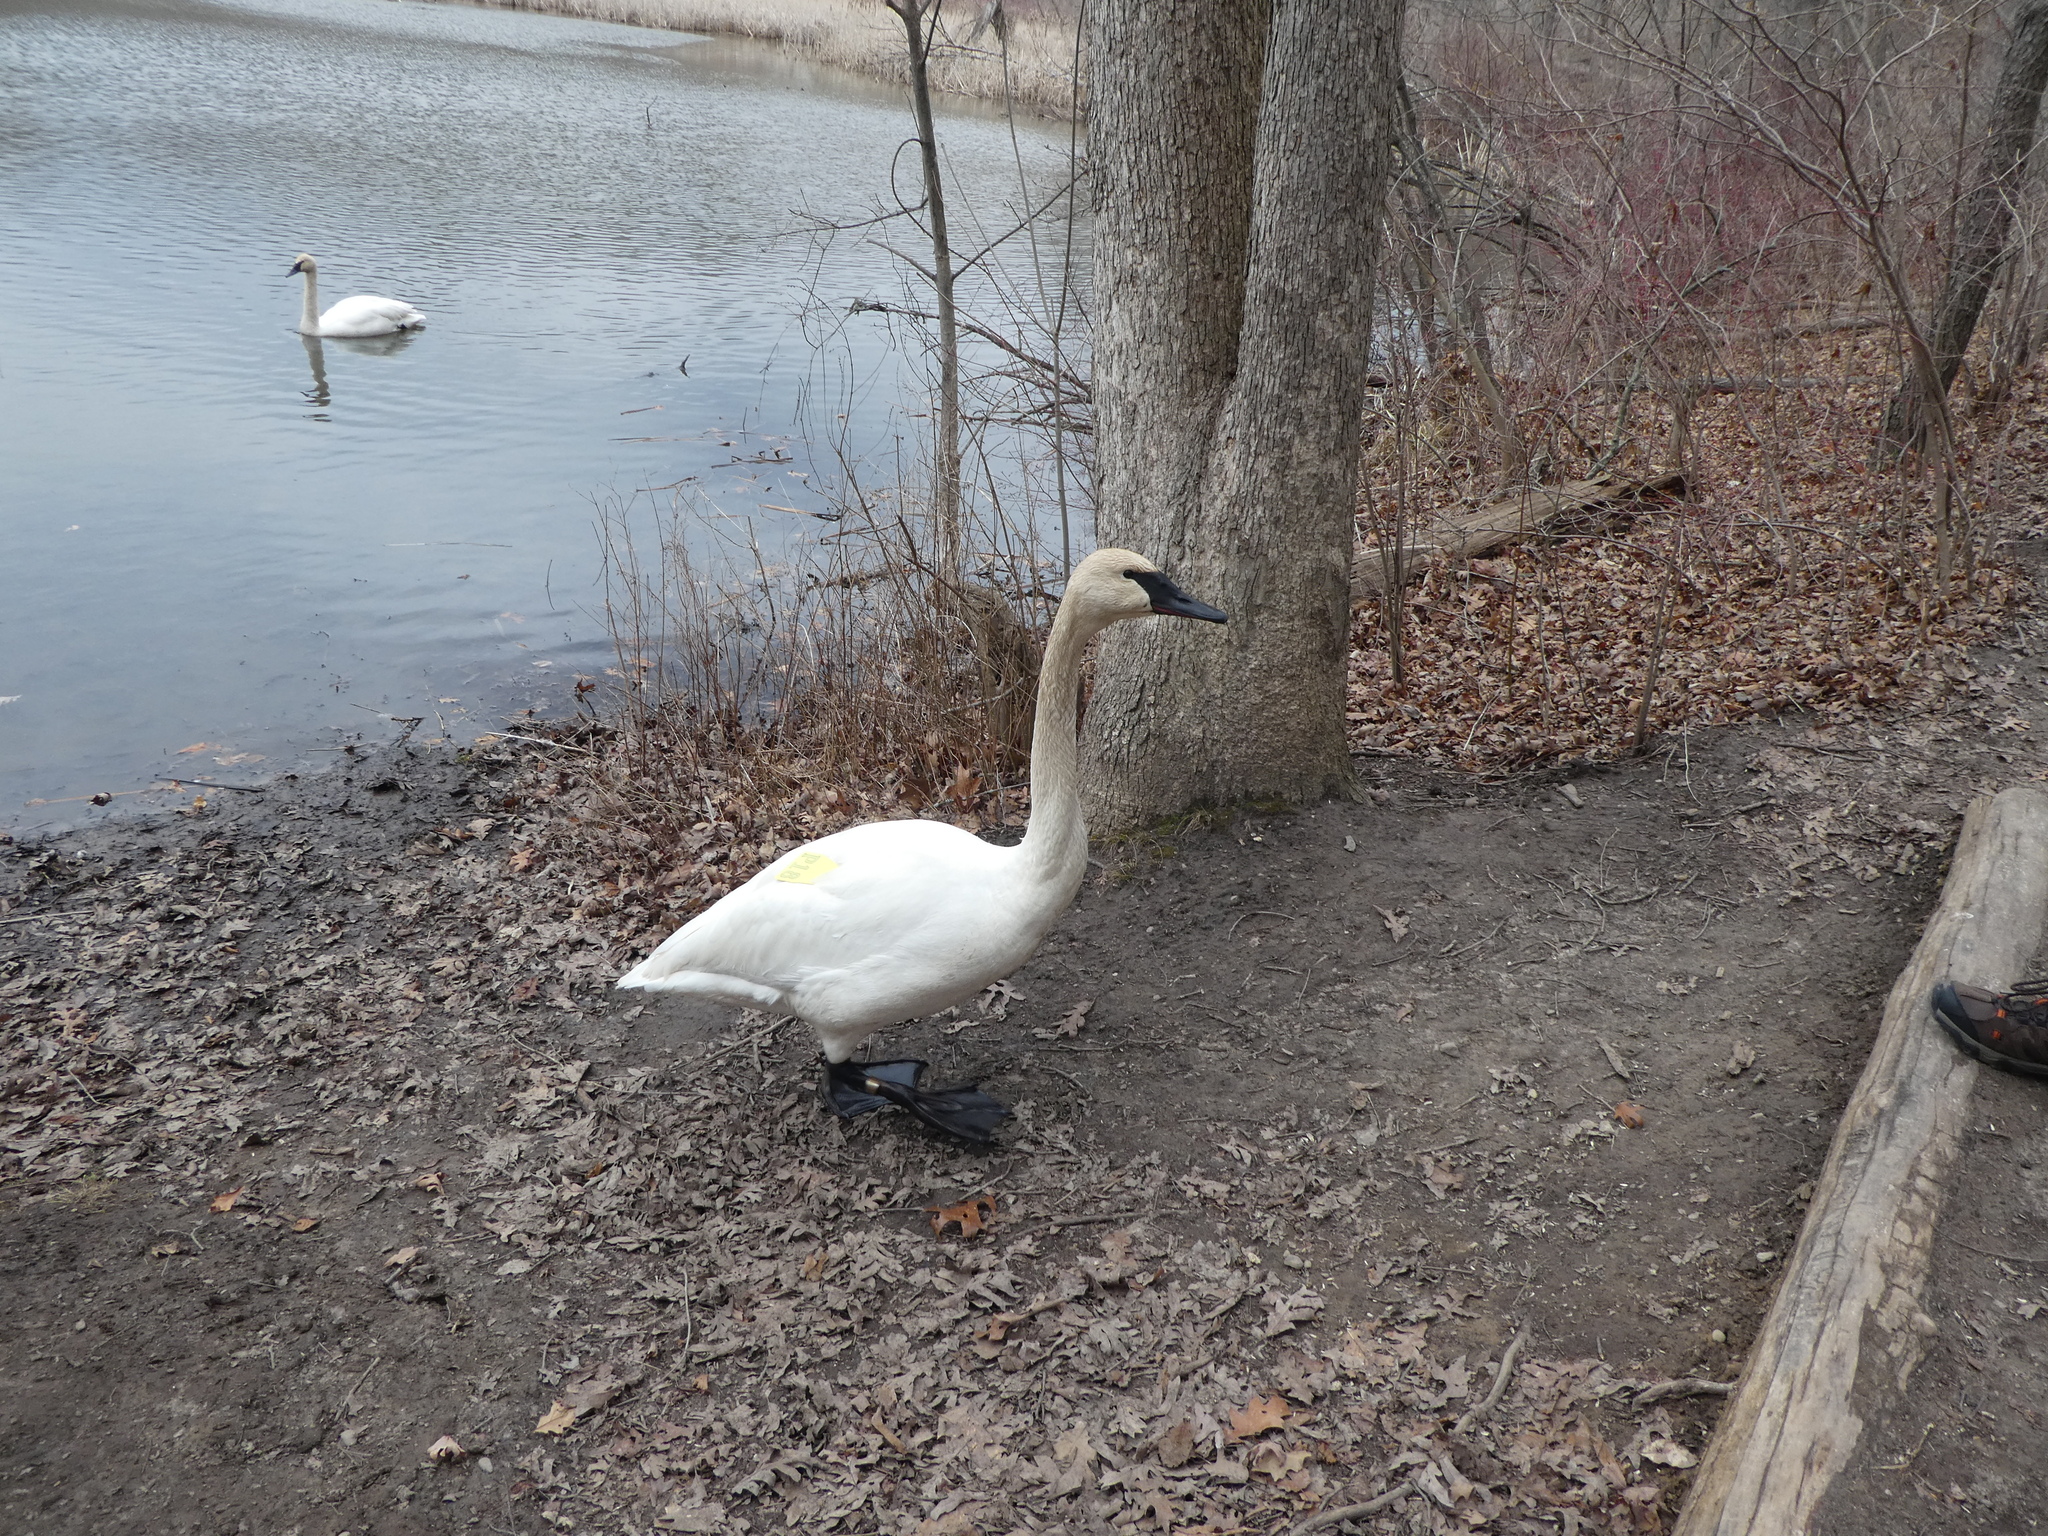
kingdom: Animalia
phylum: Chordata
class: Aves
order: Anseriformes
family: Anatidae
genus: Cygnus
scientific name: Cygnus buccinator
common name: Trumpeter swan
